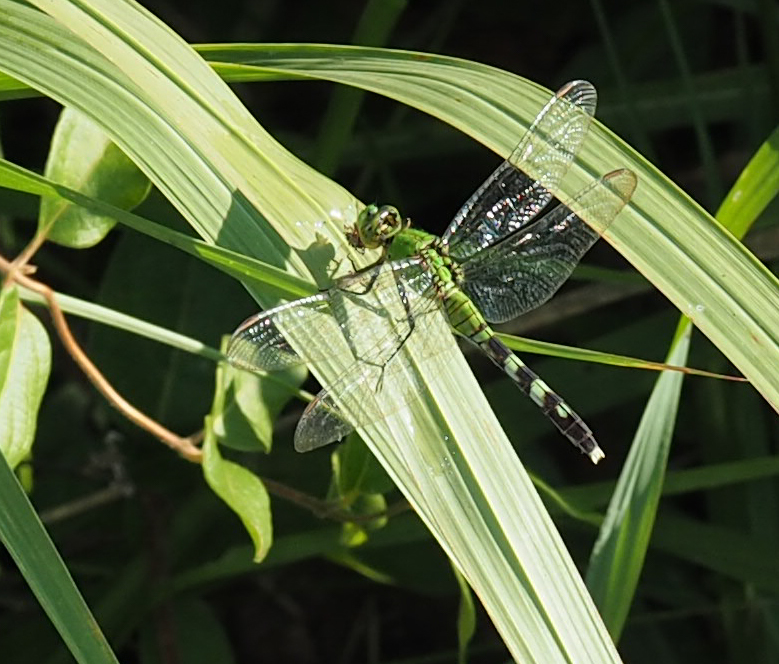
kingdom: Animalia
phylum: Arthropoda
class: Insecta
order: Odonata
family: Libellulidae
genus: Erythemis
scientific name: Erythemis simplicicollis
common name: Eastern pondhawk
